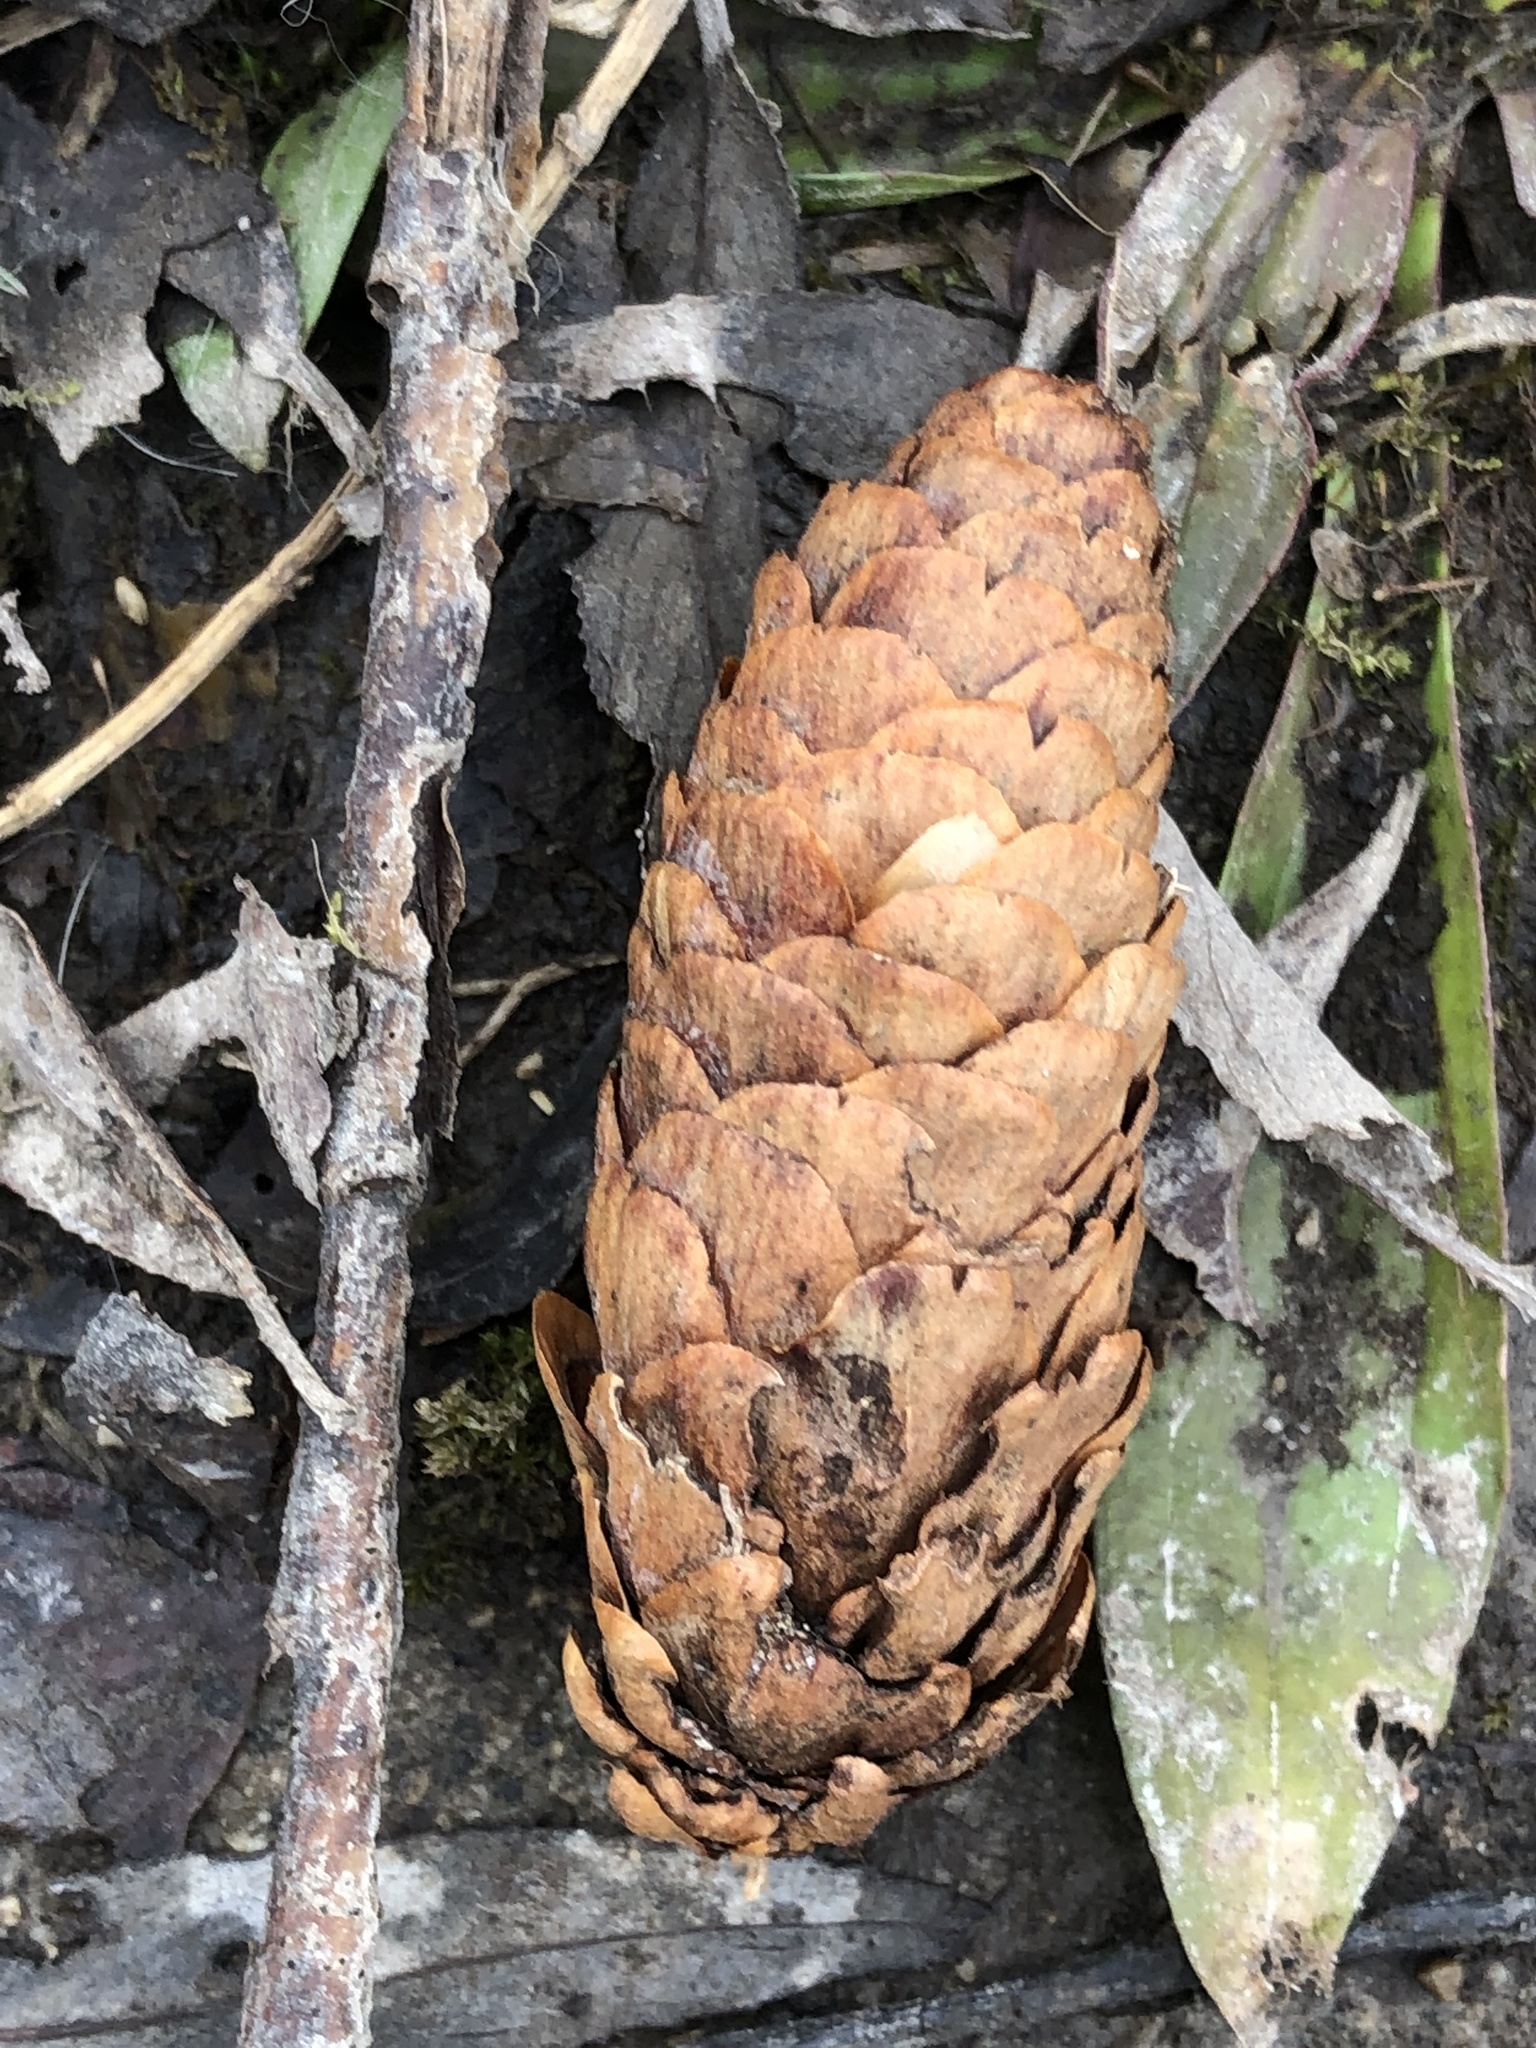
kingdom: Plantae
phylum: Tracheophyta
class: Pinopsida
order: Pinales
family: Pinaceae
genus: Picea
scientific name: Picea glauca
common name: White spruce
